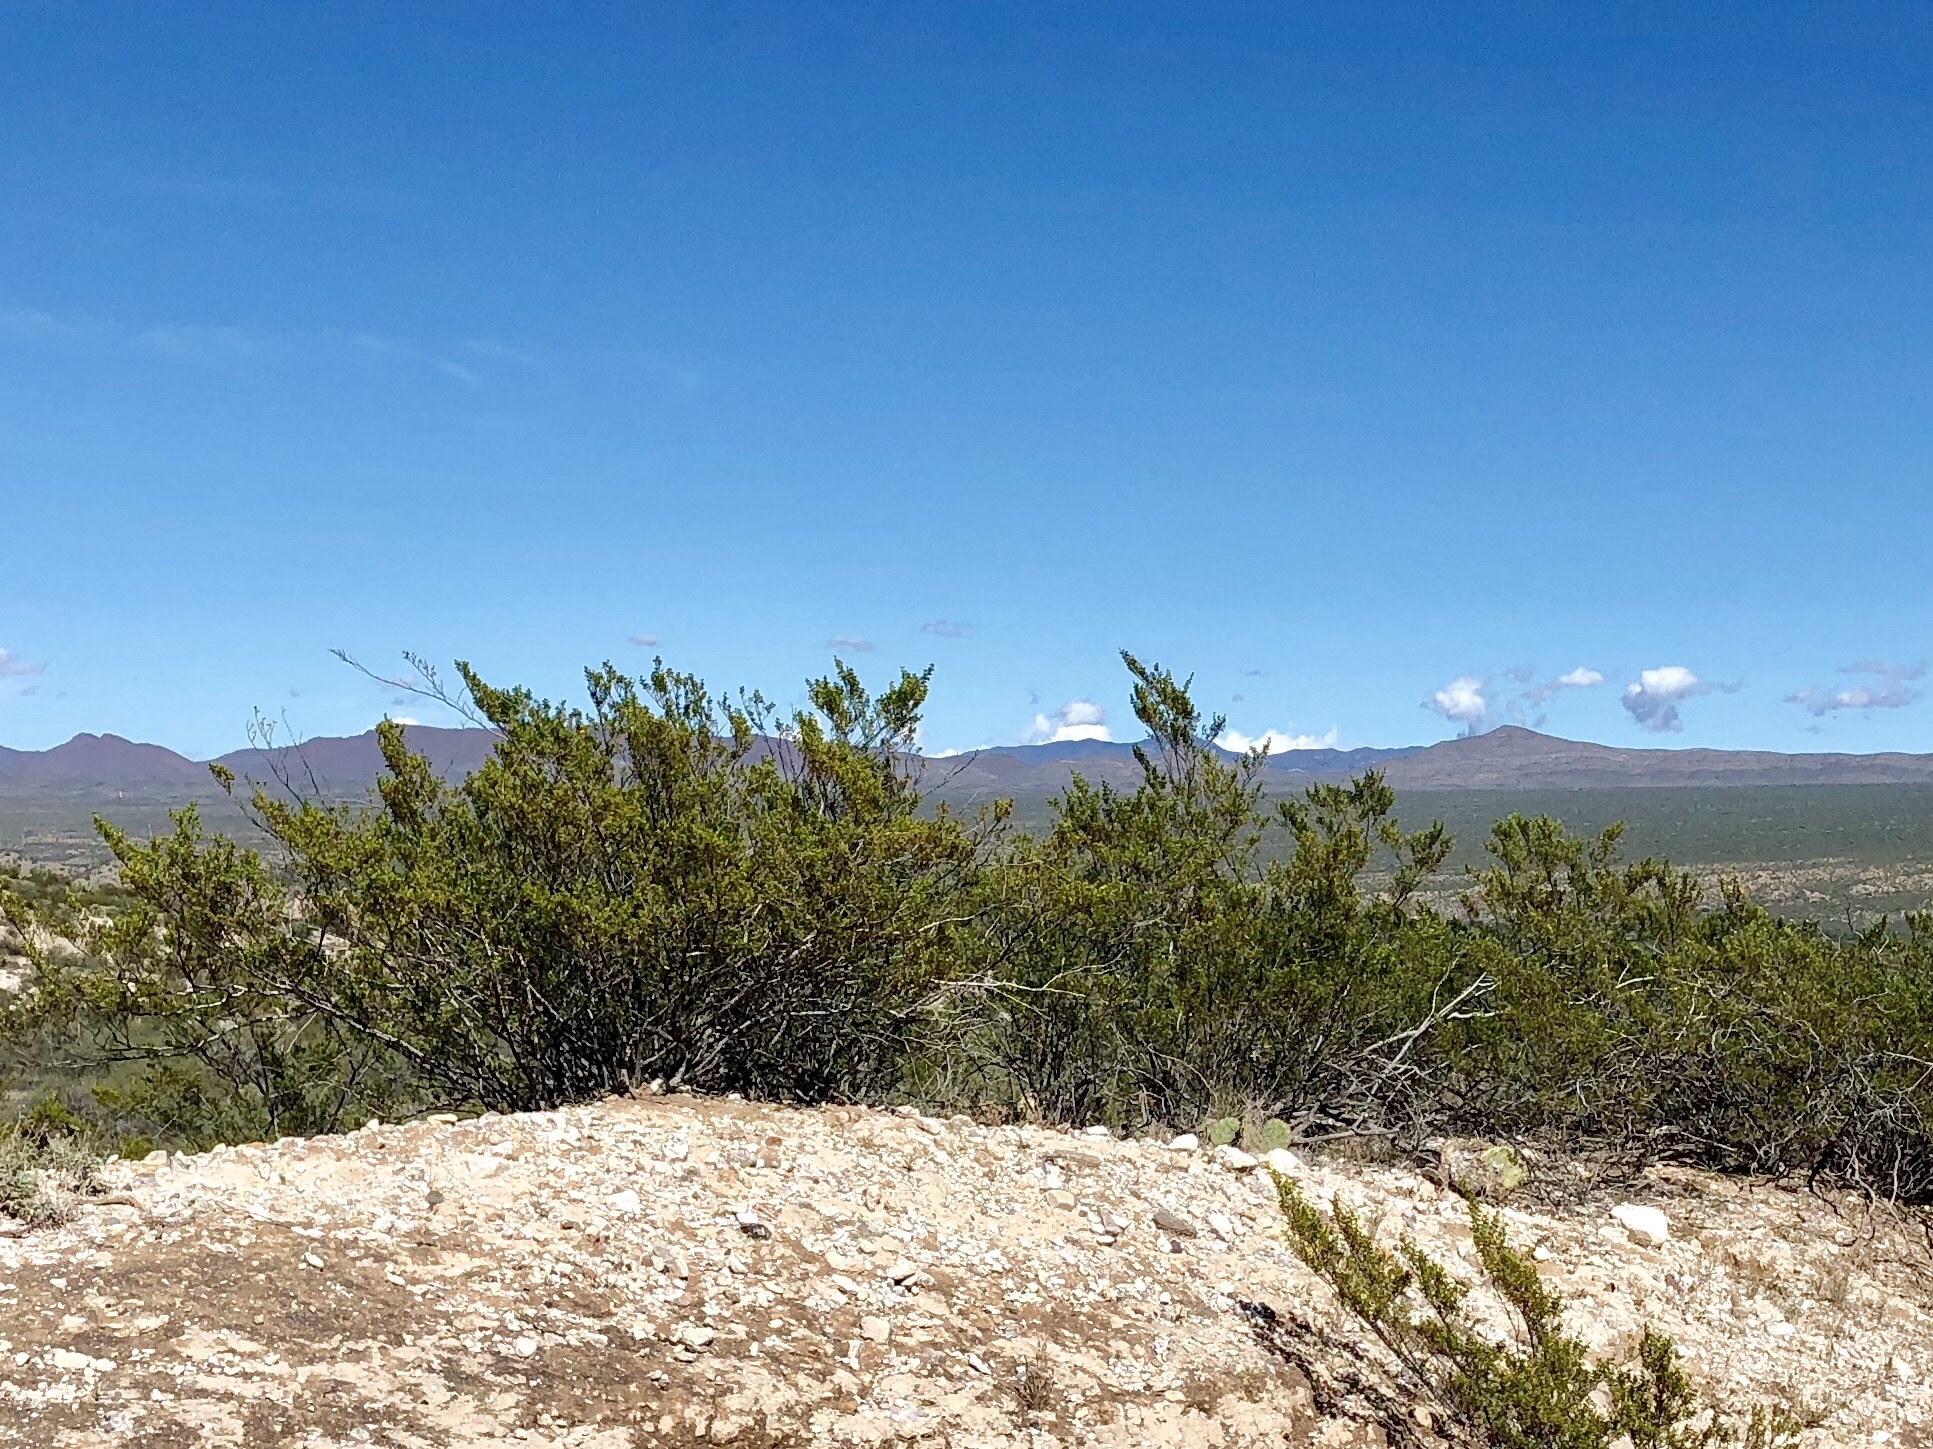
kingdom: Plantae
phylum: Tracheophyta
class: Magnoliopsida
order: Zygophyllales
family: Zygophyllaceae
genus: Larrea
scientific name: Larrea tridentata
